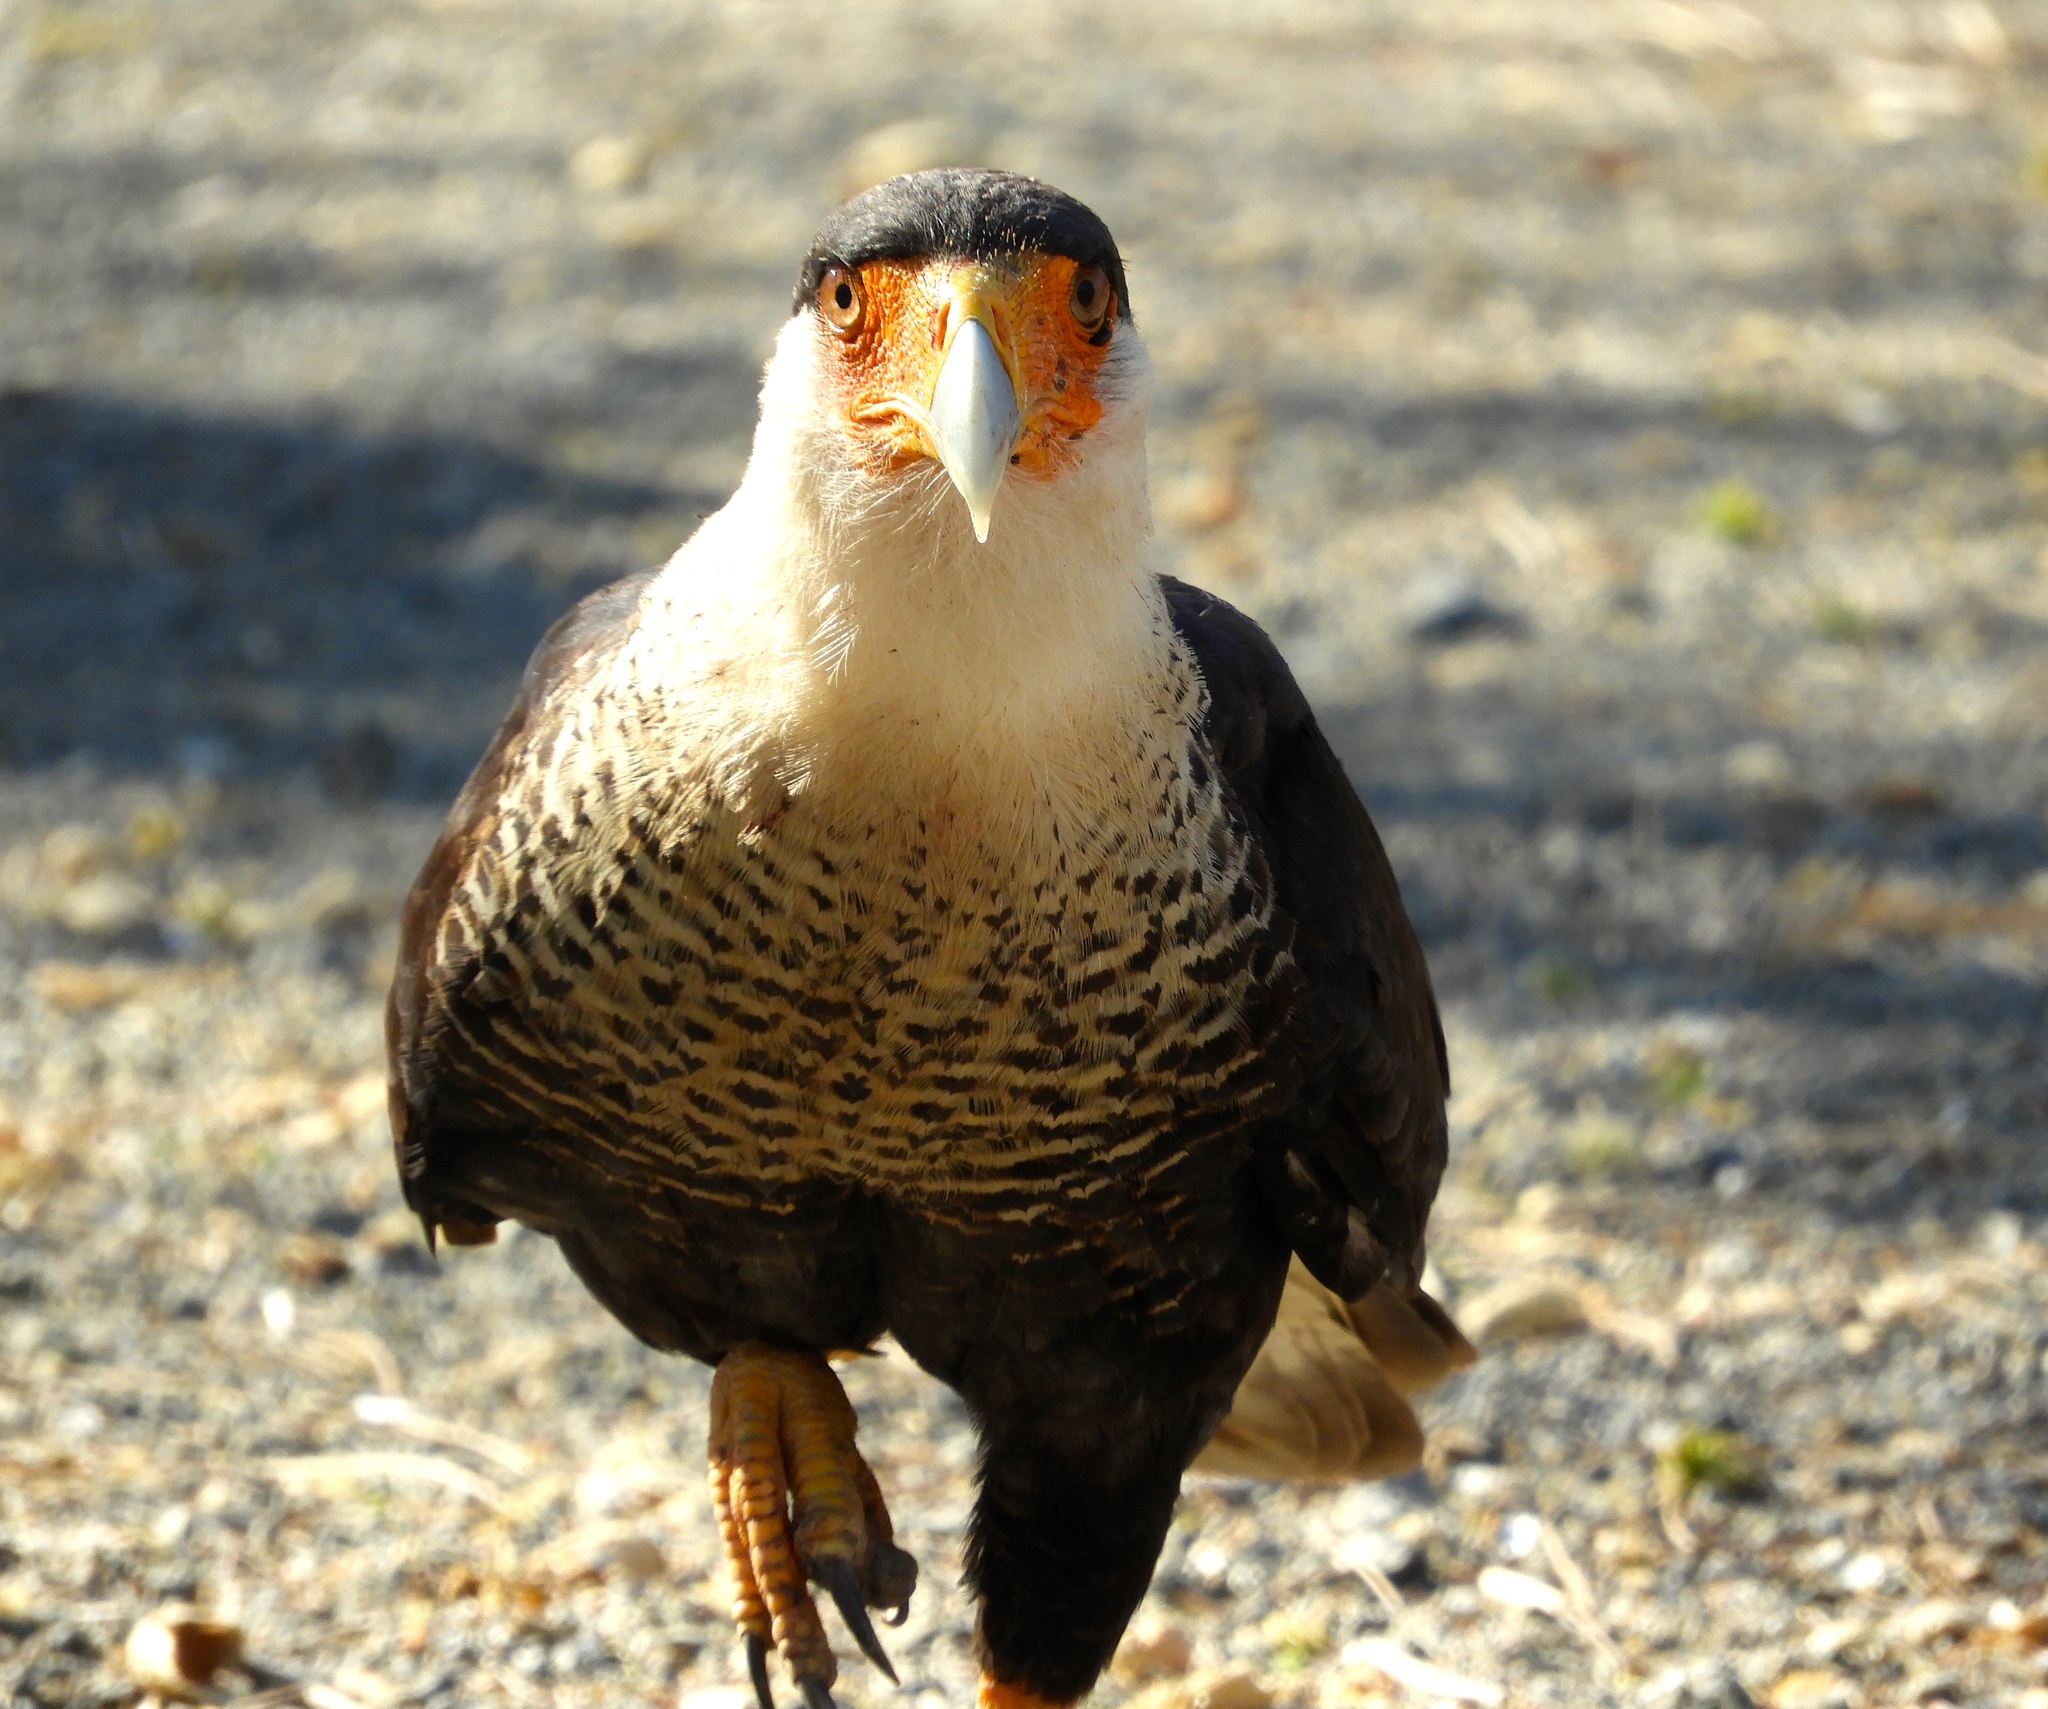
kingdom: Animalia
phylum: Chordata
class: Aves
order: Falconiformes
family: Falconidae
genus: Caracara
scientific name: Caracara plancus
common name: Southern caracara
